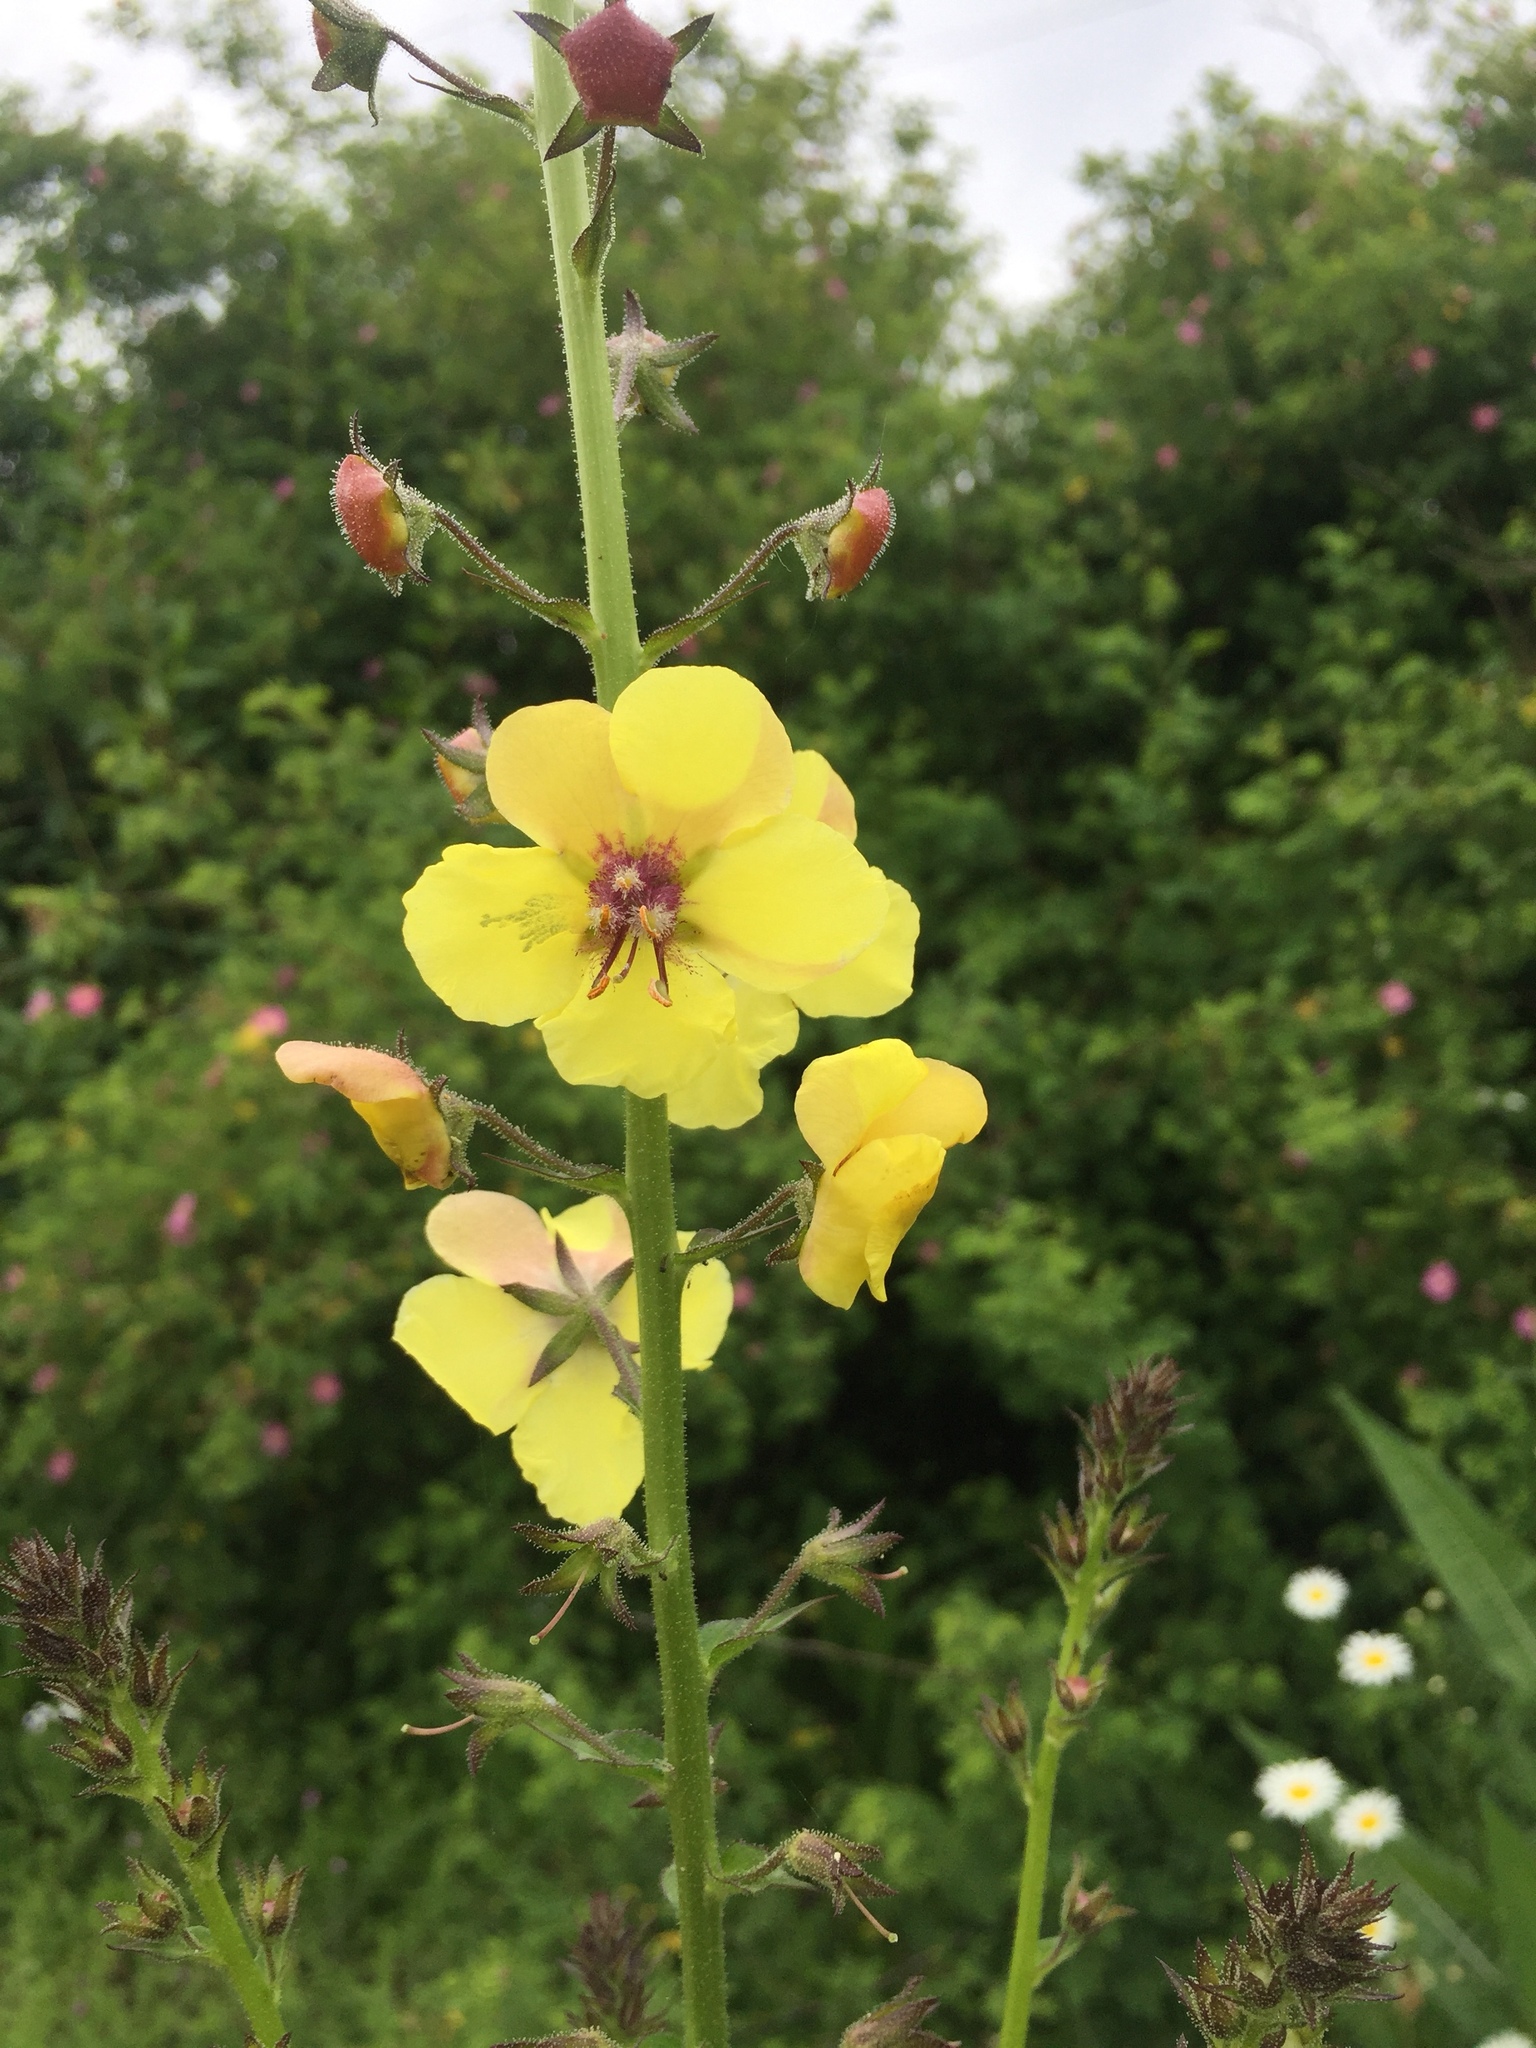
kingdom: Plantae
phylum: Tracheophyta
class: Magnoliopsida
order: Lamiales
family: Scrophulariaceae
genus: Verbascum
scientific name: Verbascum blattaria
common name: Moth mullein
